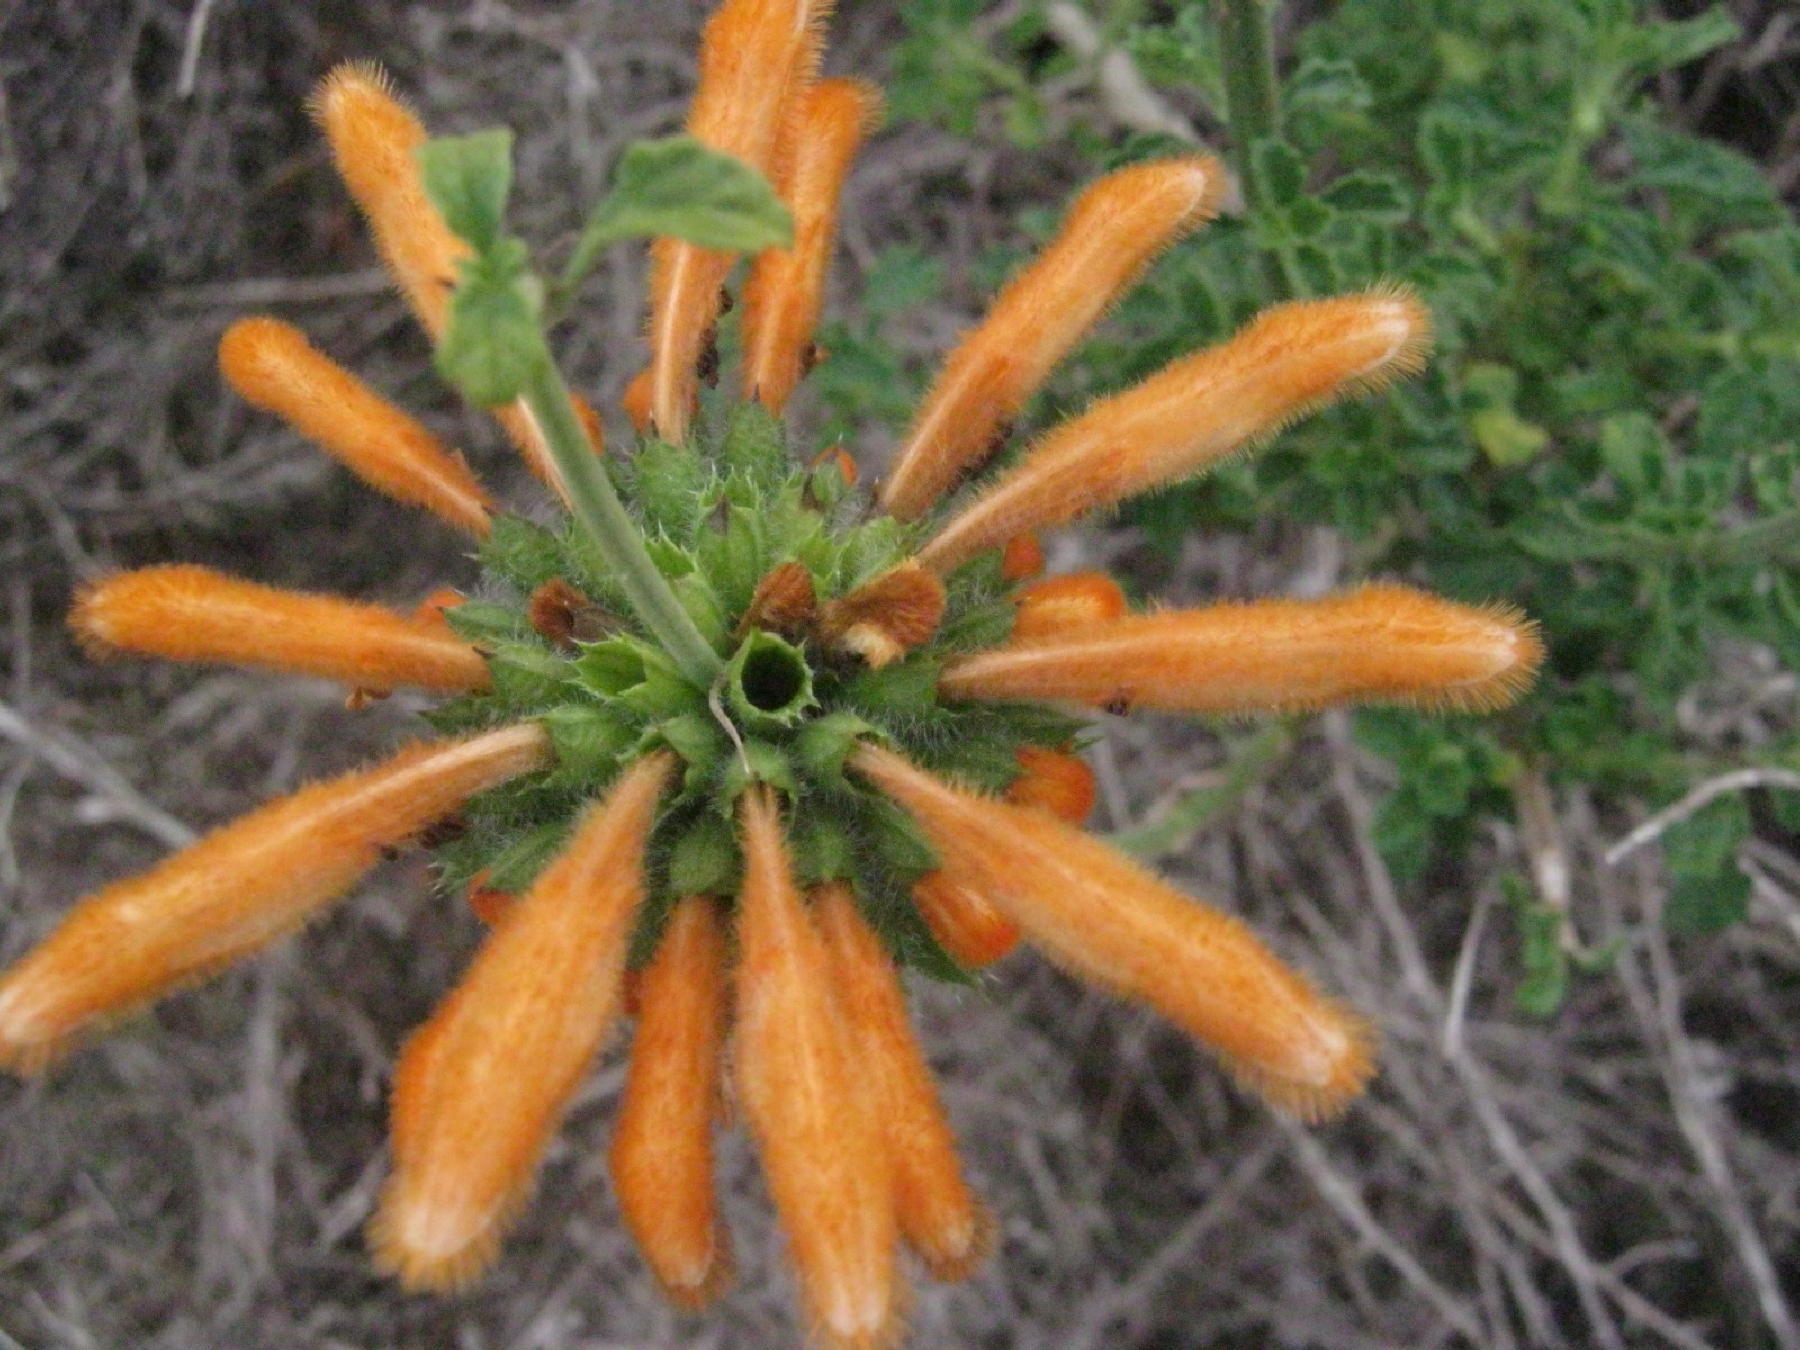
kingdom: Plantae
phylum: Tracheophyta
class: Magnoliopsida
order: Lamiales
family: Lamiaceae
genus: Leonotis
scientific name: Leonotis ocymifolia
